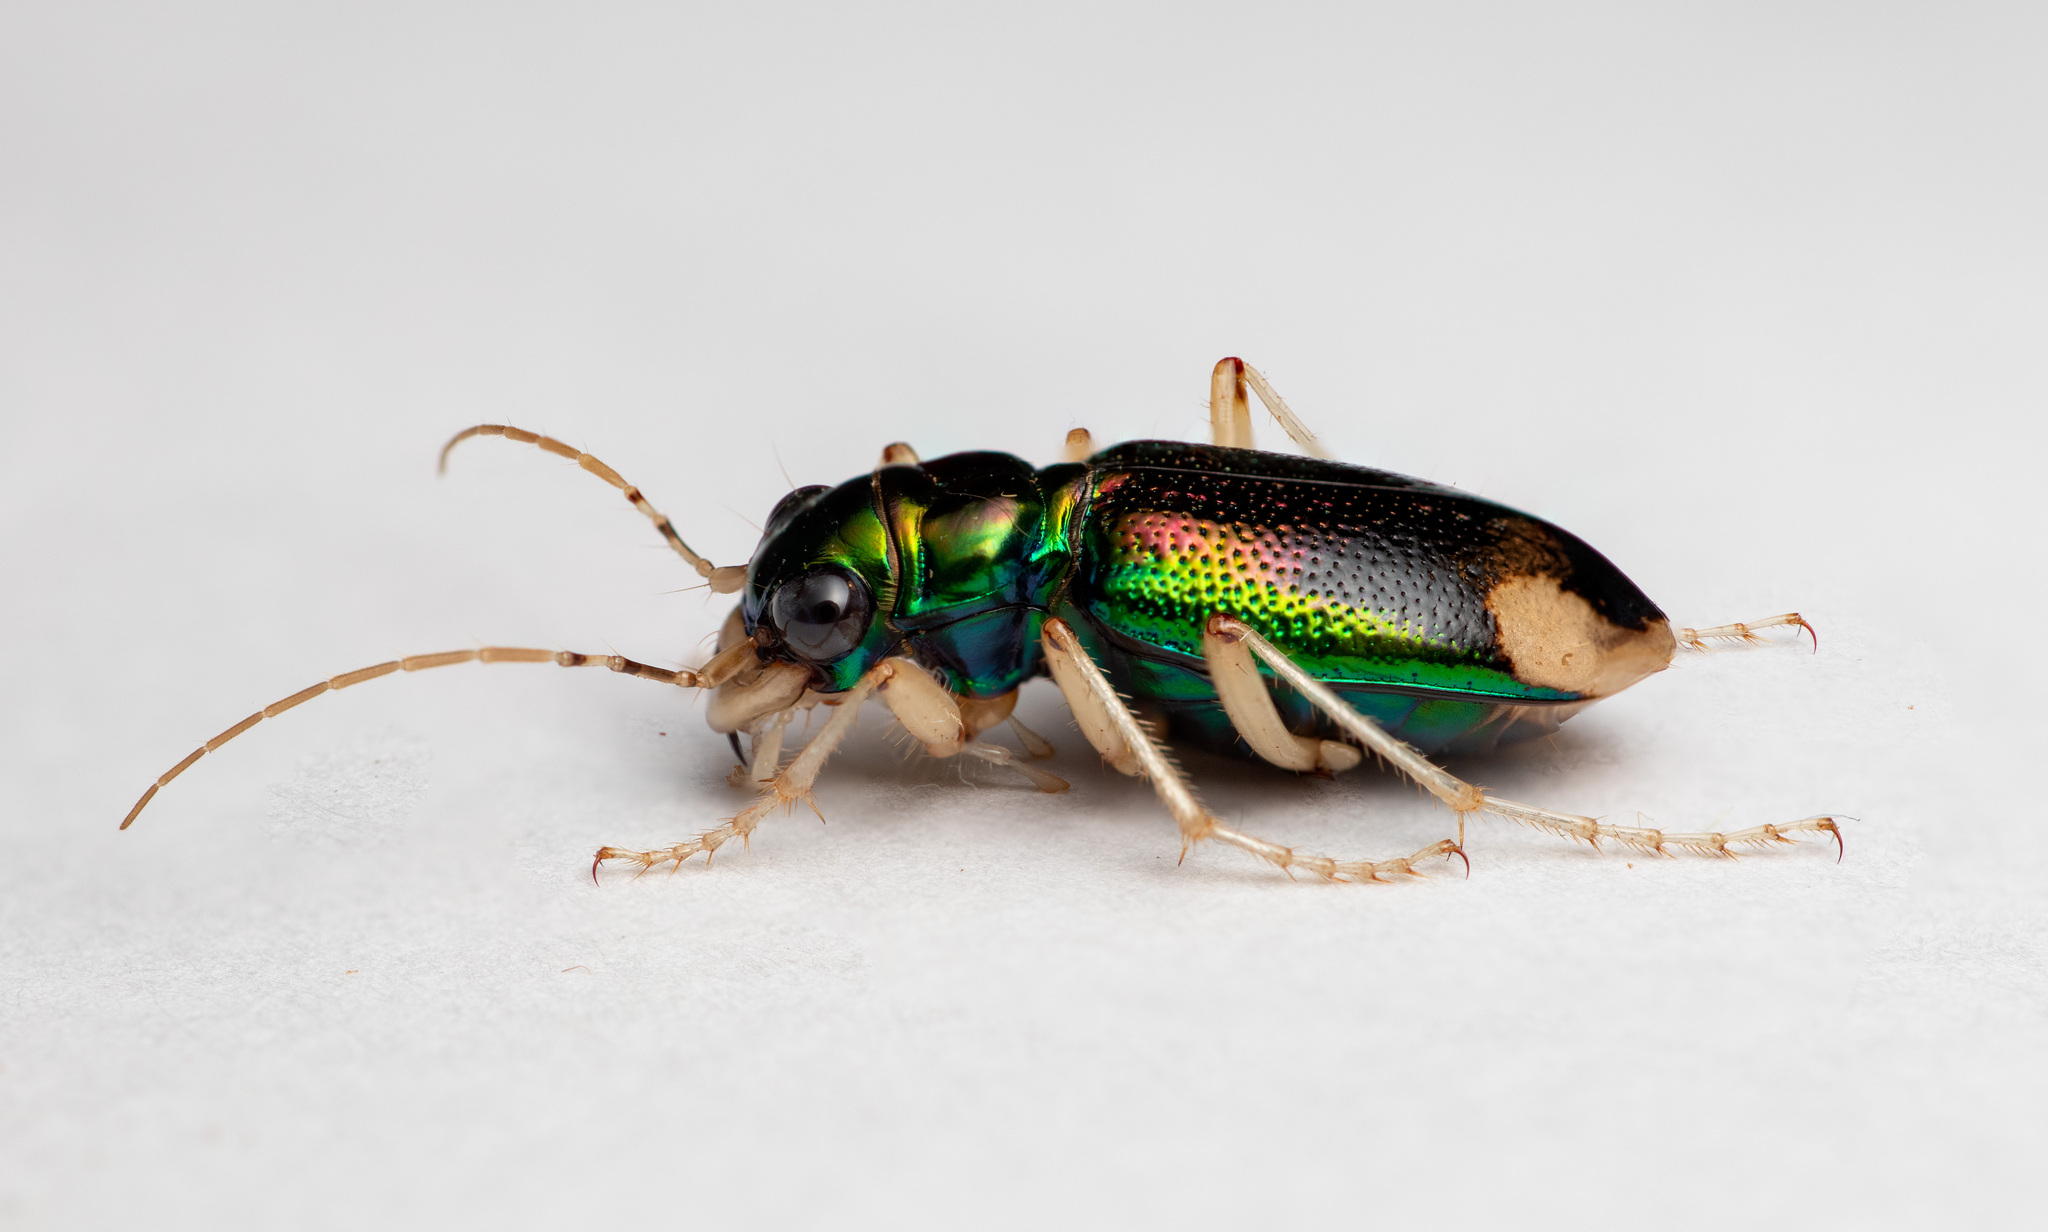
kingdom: Animalia
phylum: Arthropoda
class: Insecta
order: Coleoptera
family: Carabidae
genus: Tetracha
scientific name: Tetracha carolina
